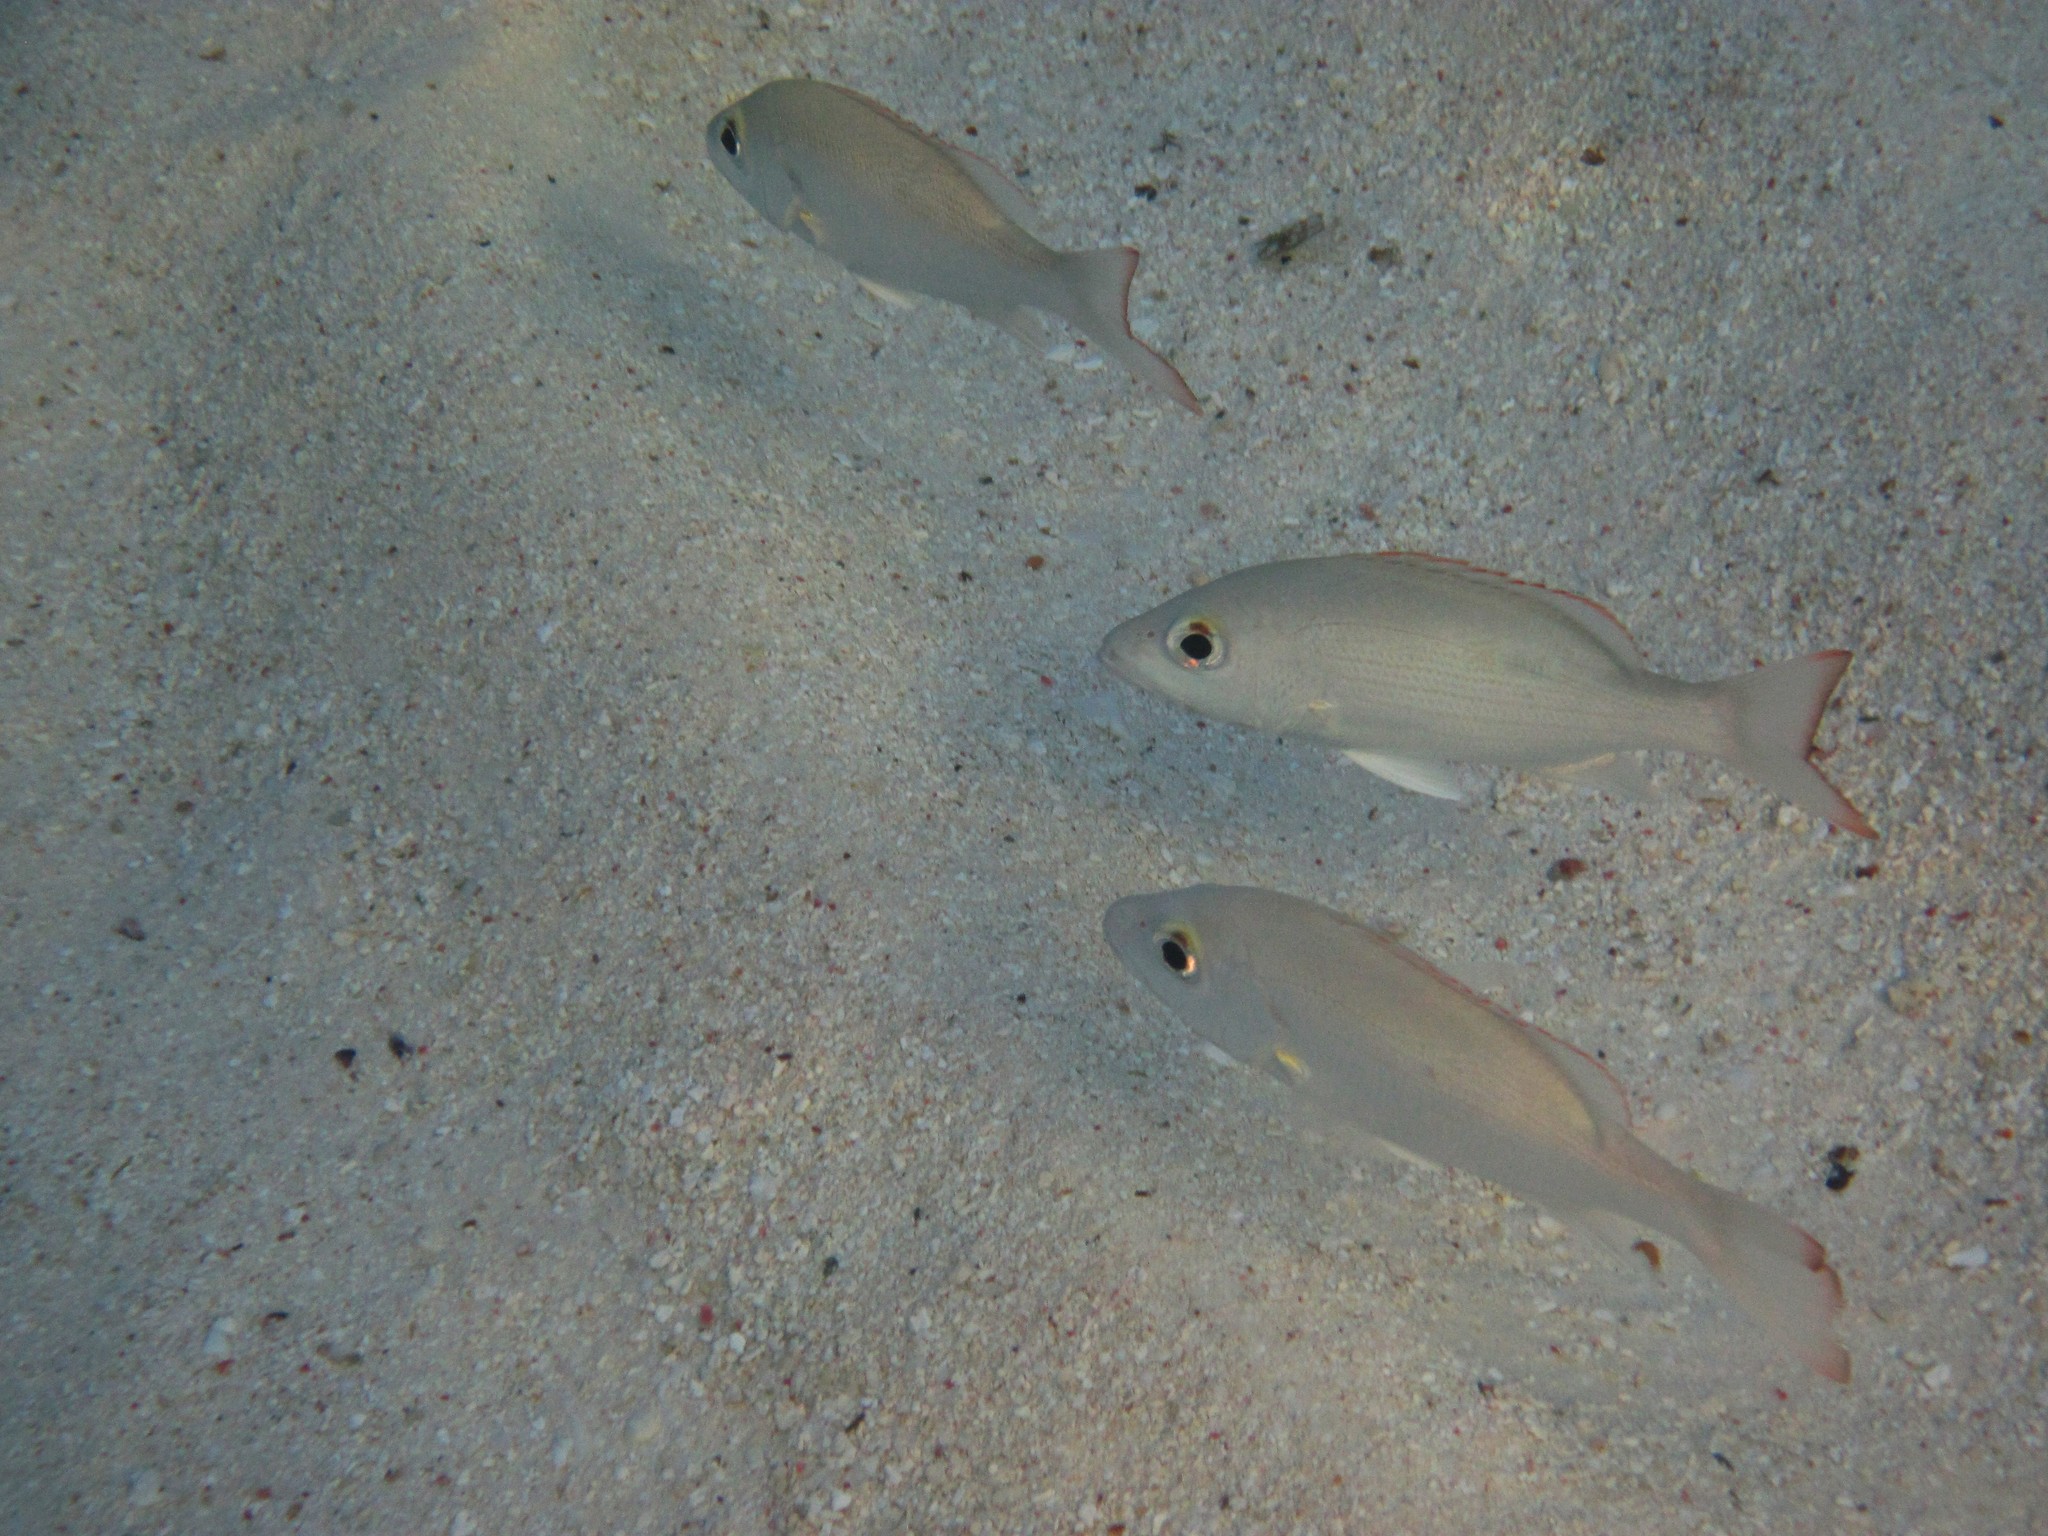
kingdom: Animalia
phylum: Chordata
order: Perciformes
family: Lutjanidae
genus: Lutjanus
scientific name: Lutjanus mahogoni
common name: Spot snapper
